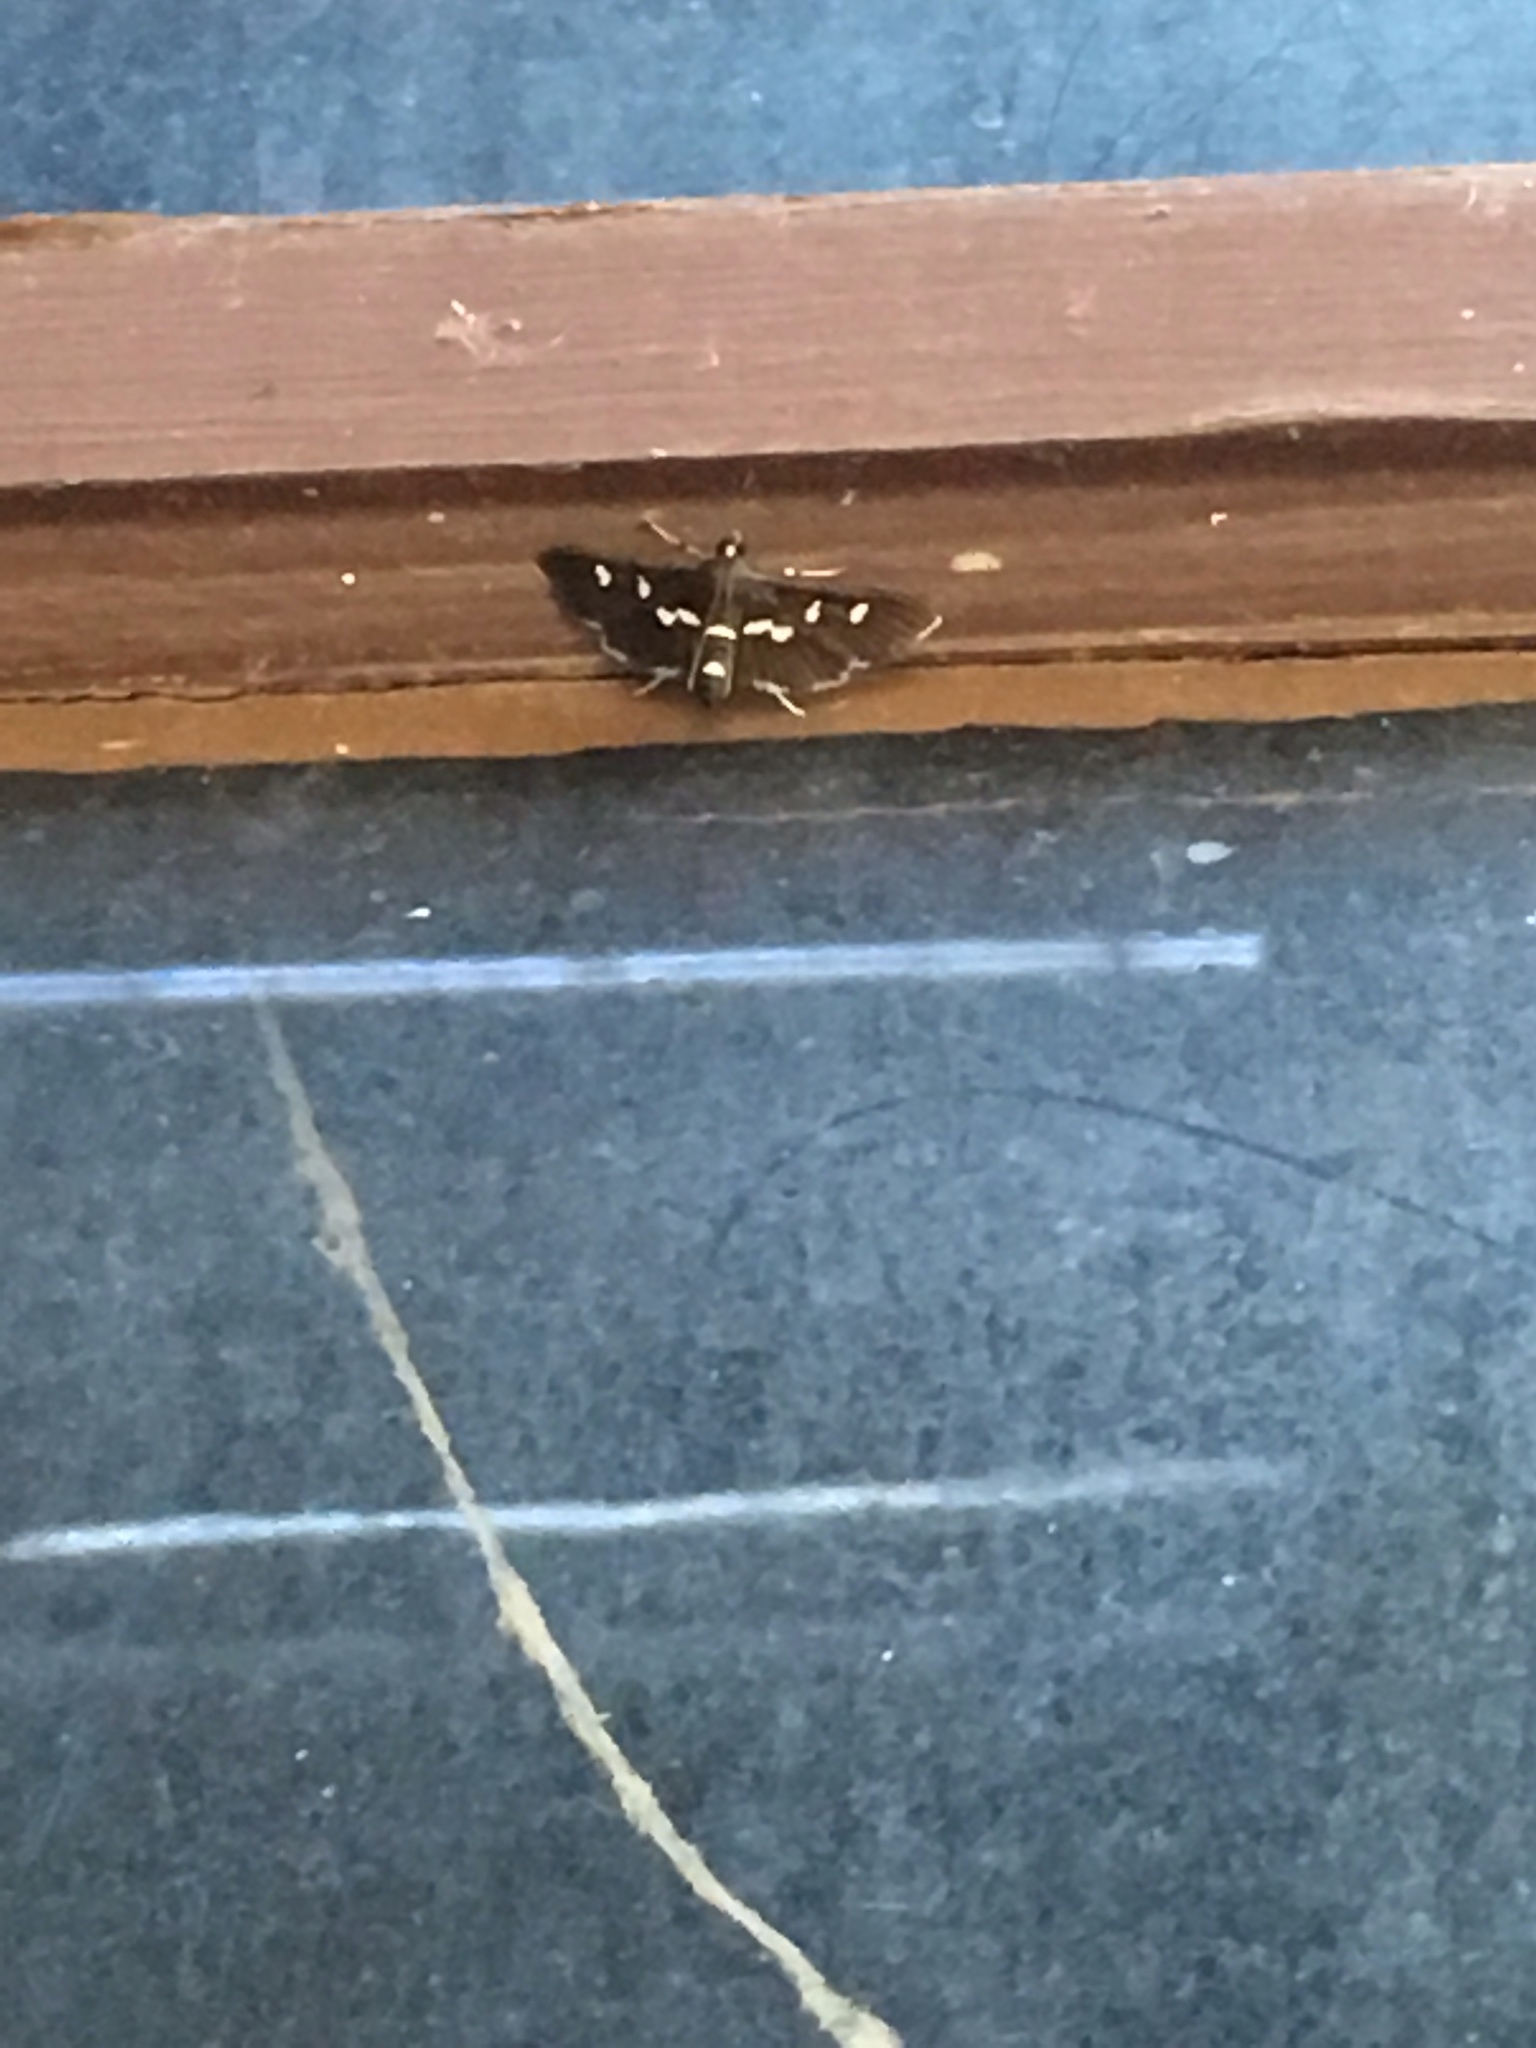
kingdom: Animalia
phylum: Arthropoda
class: Insecta
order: Lepidoptera
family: Crambidae
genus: Desmia
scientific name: Desmia funeralis
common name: Grape leaf folder moth
